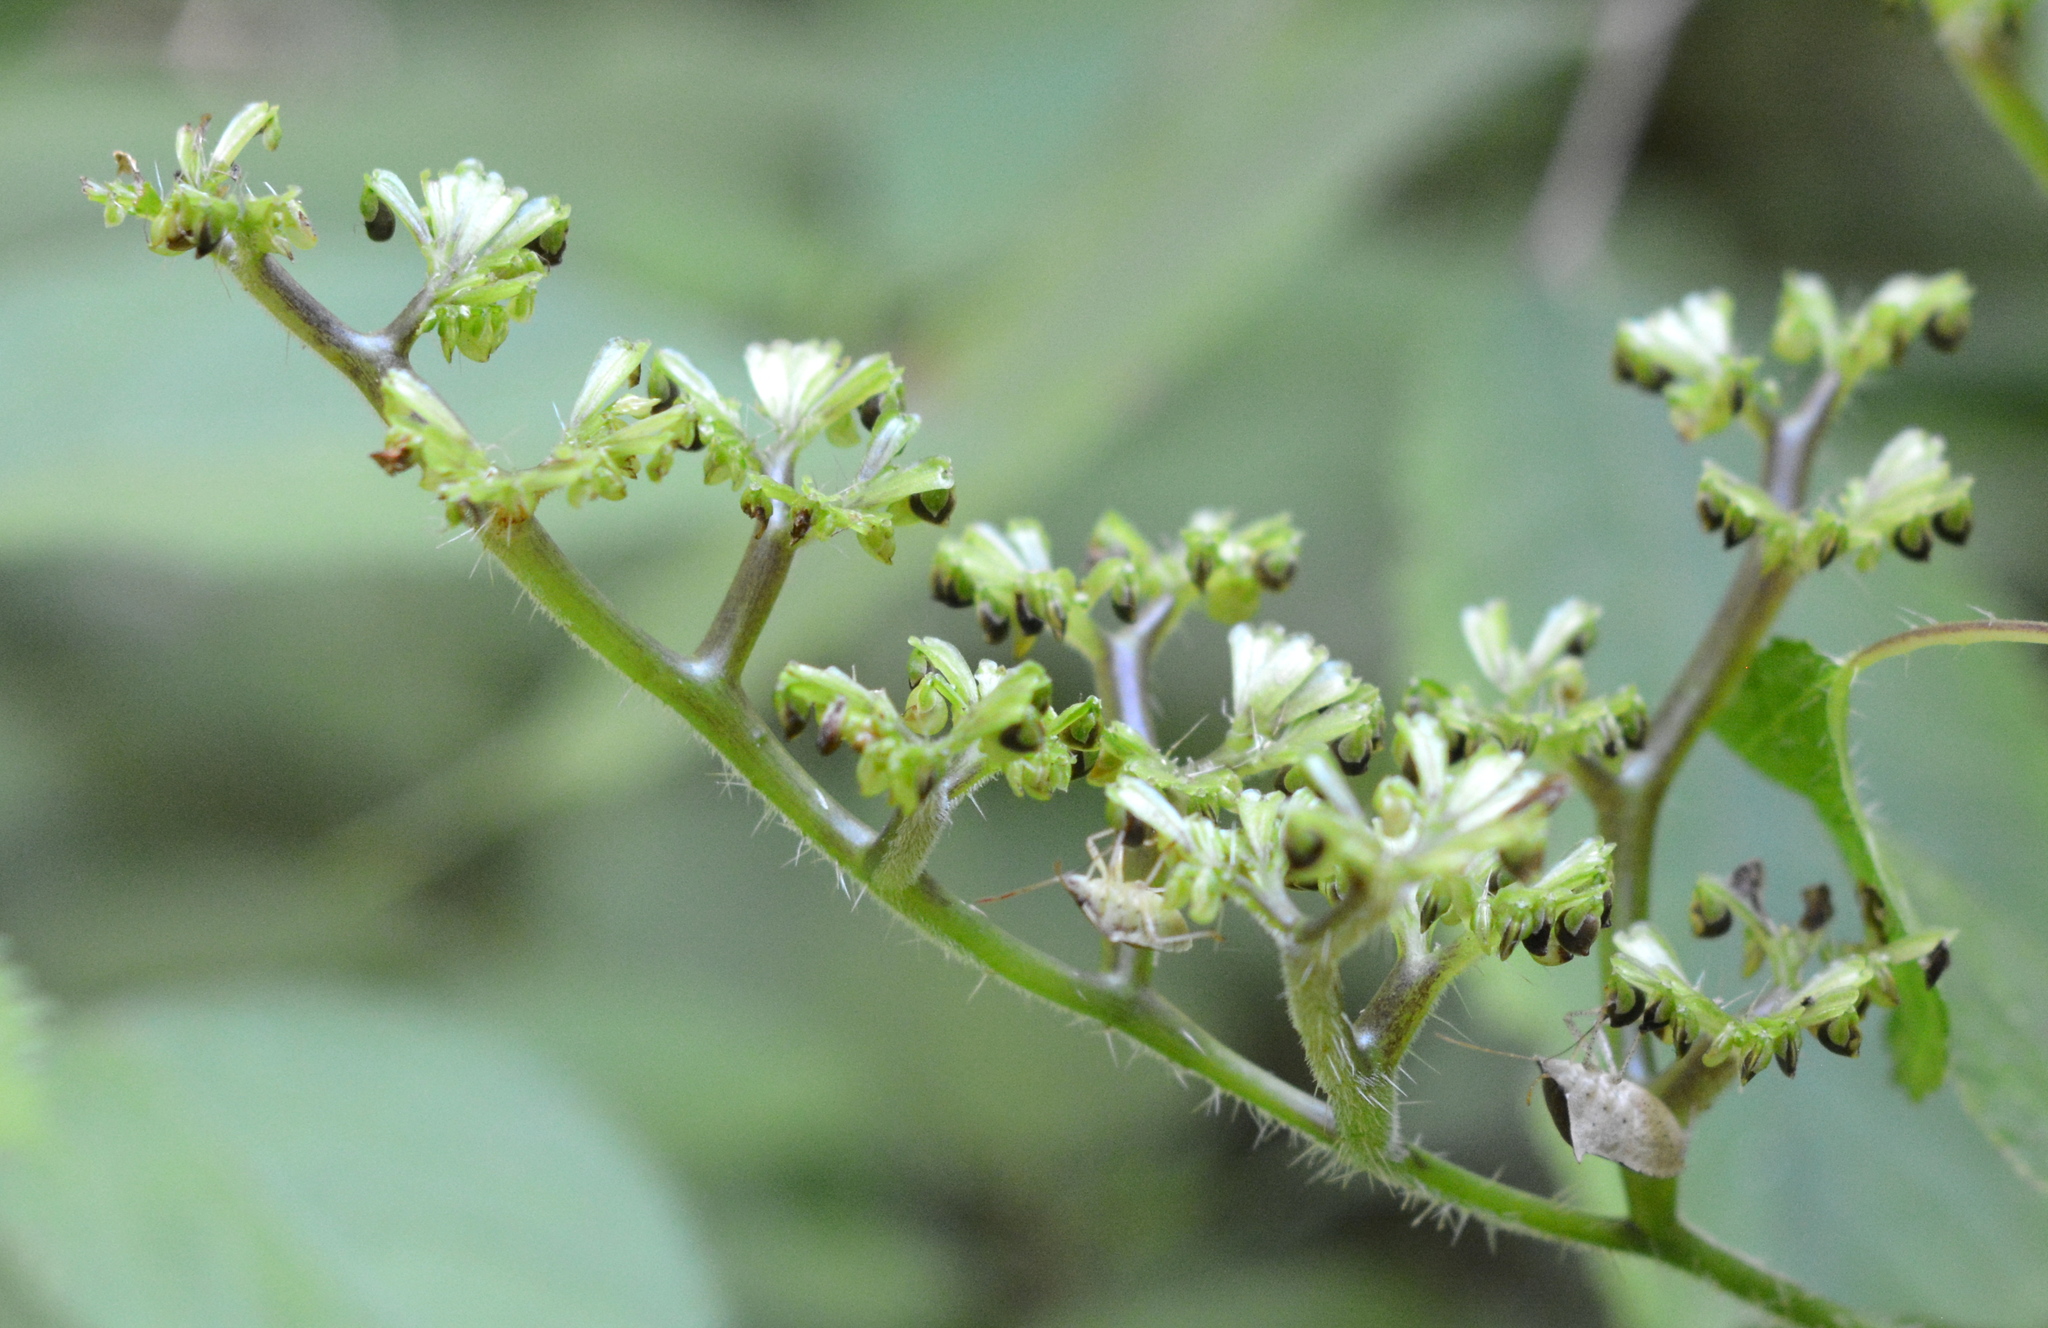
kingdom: Plantae
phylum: Tracheophyta
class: Magnoliopsida
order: Rosales
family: Urticaceae
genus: Laportea
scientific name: Laportea canadensis
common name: Canada nettle
